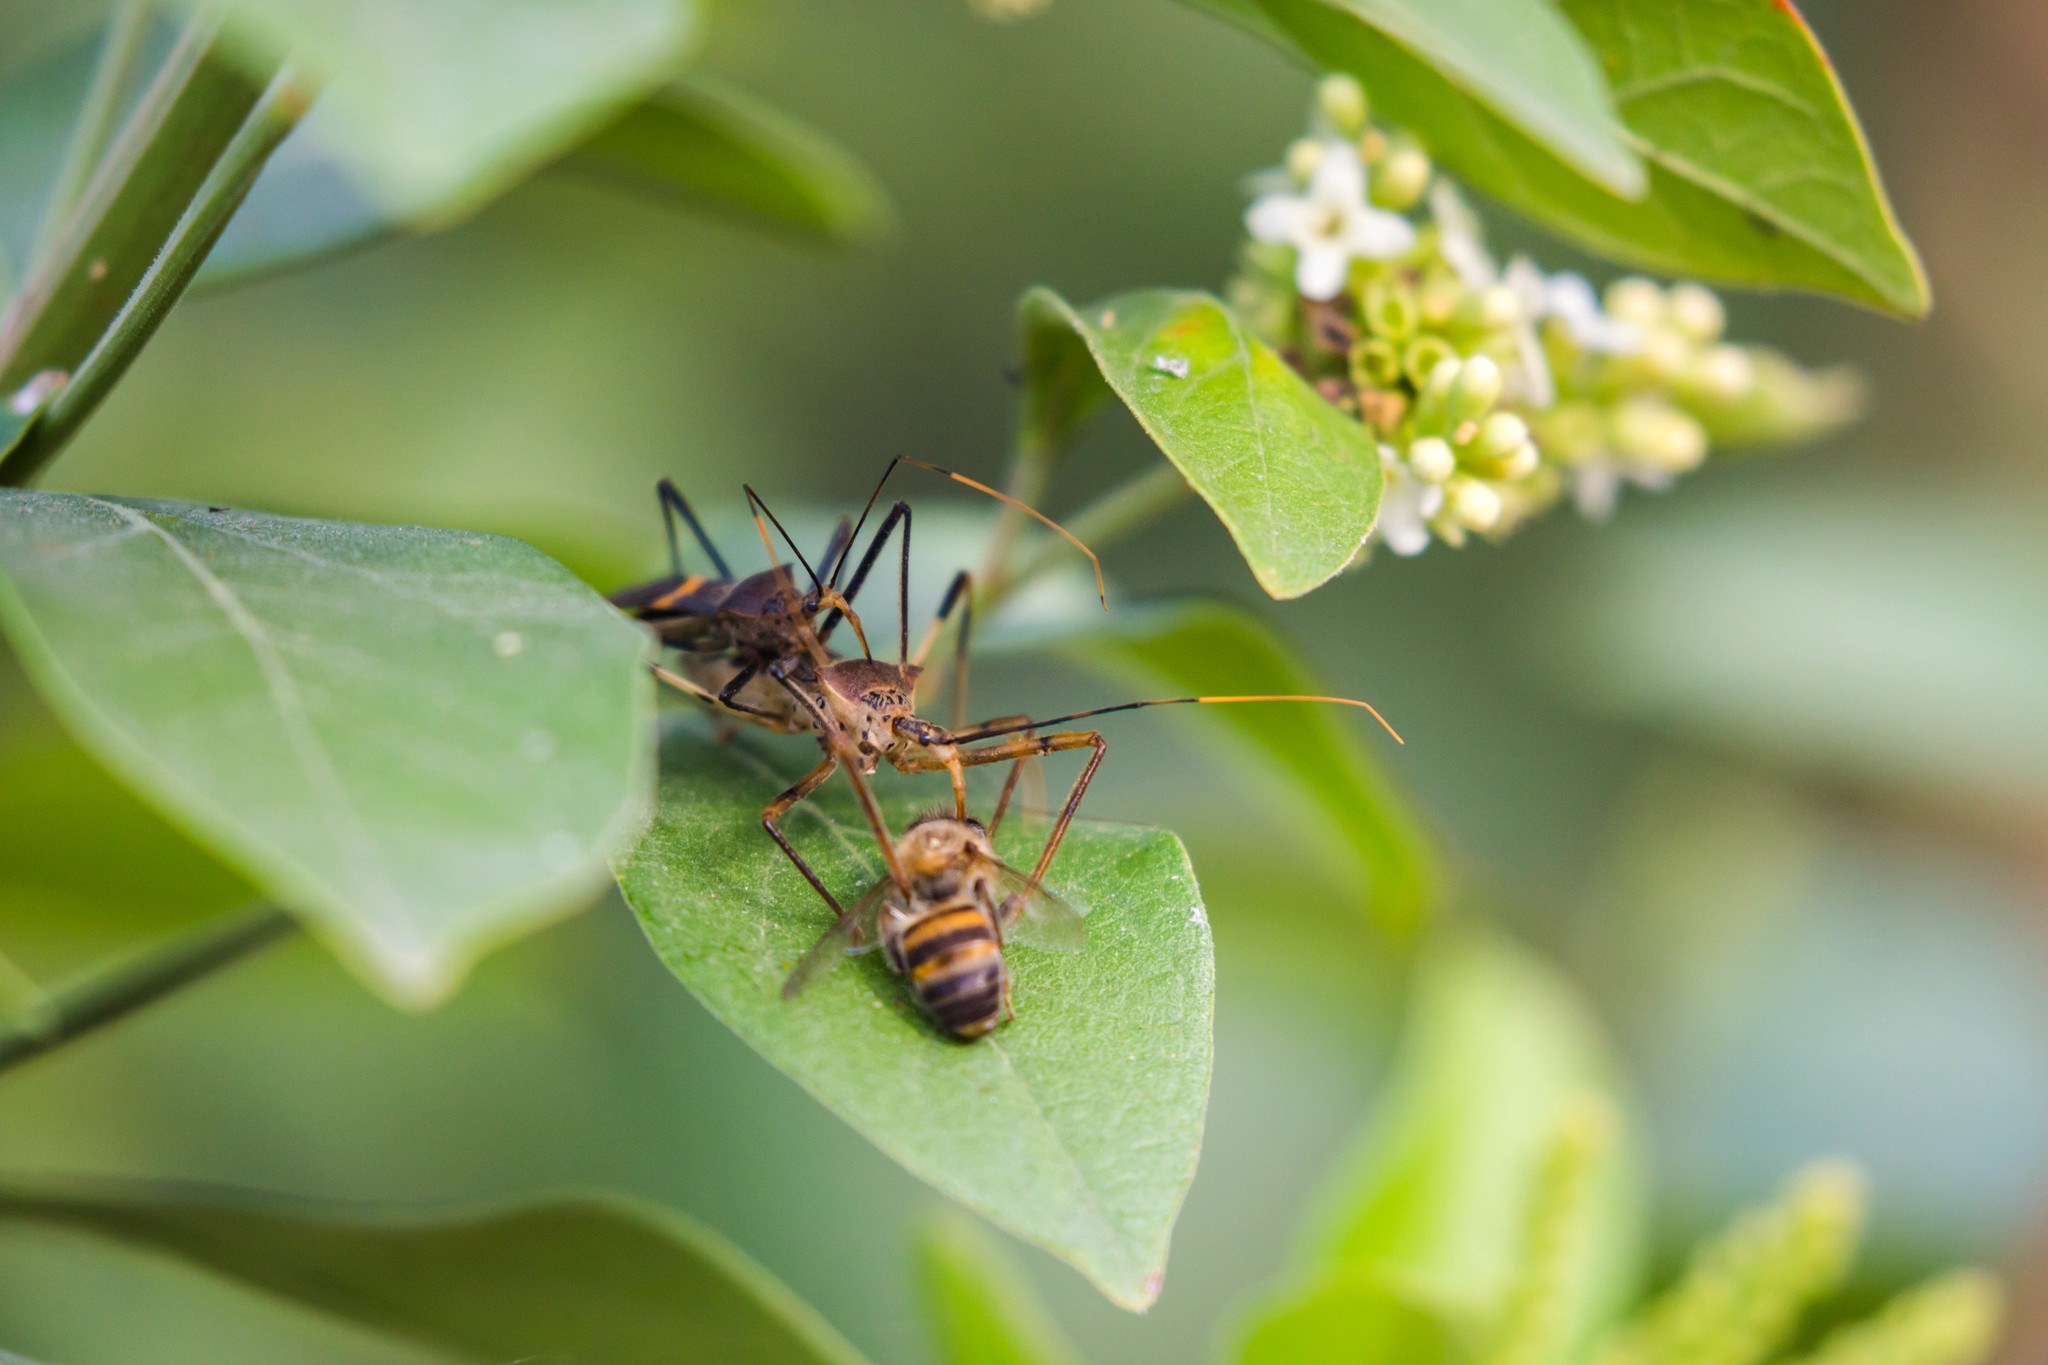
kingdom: Animalia
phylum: Arthropoda
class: Insecta
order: Hemiptera
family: Reduviidae
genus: Zelus
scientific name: Zelus janus
